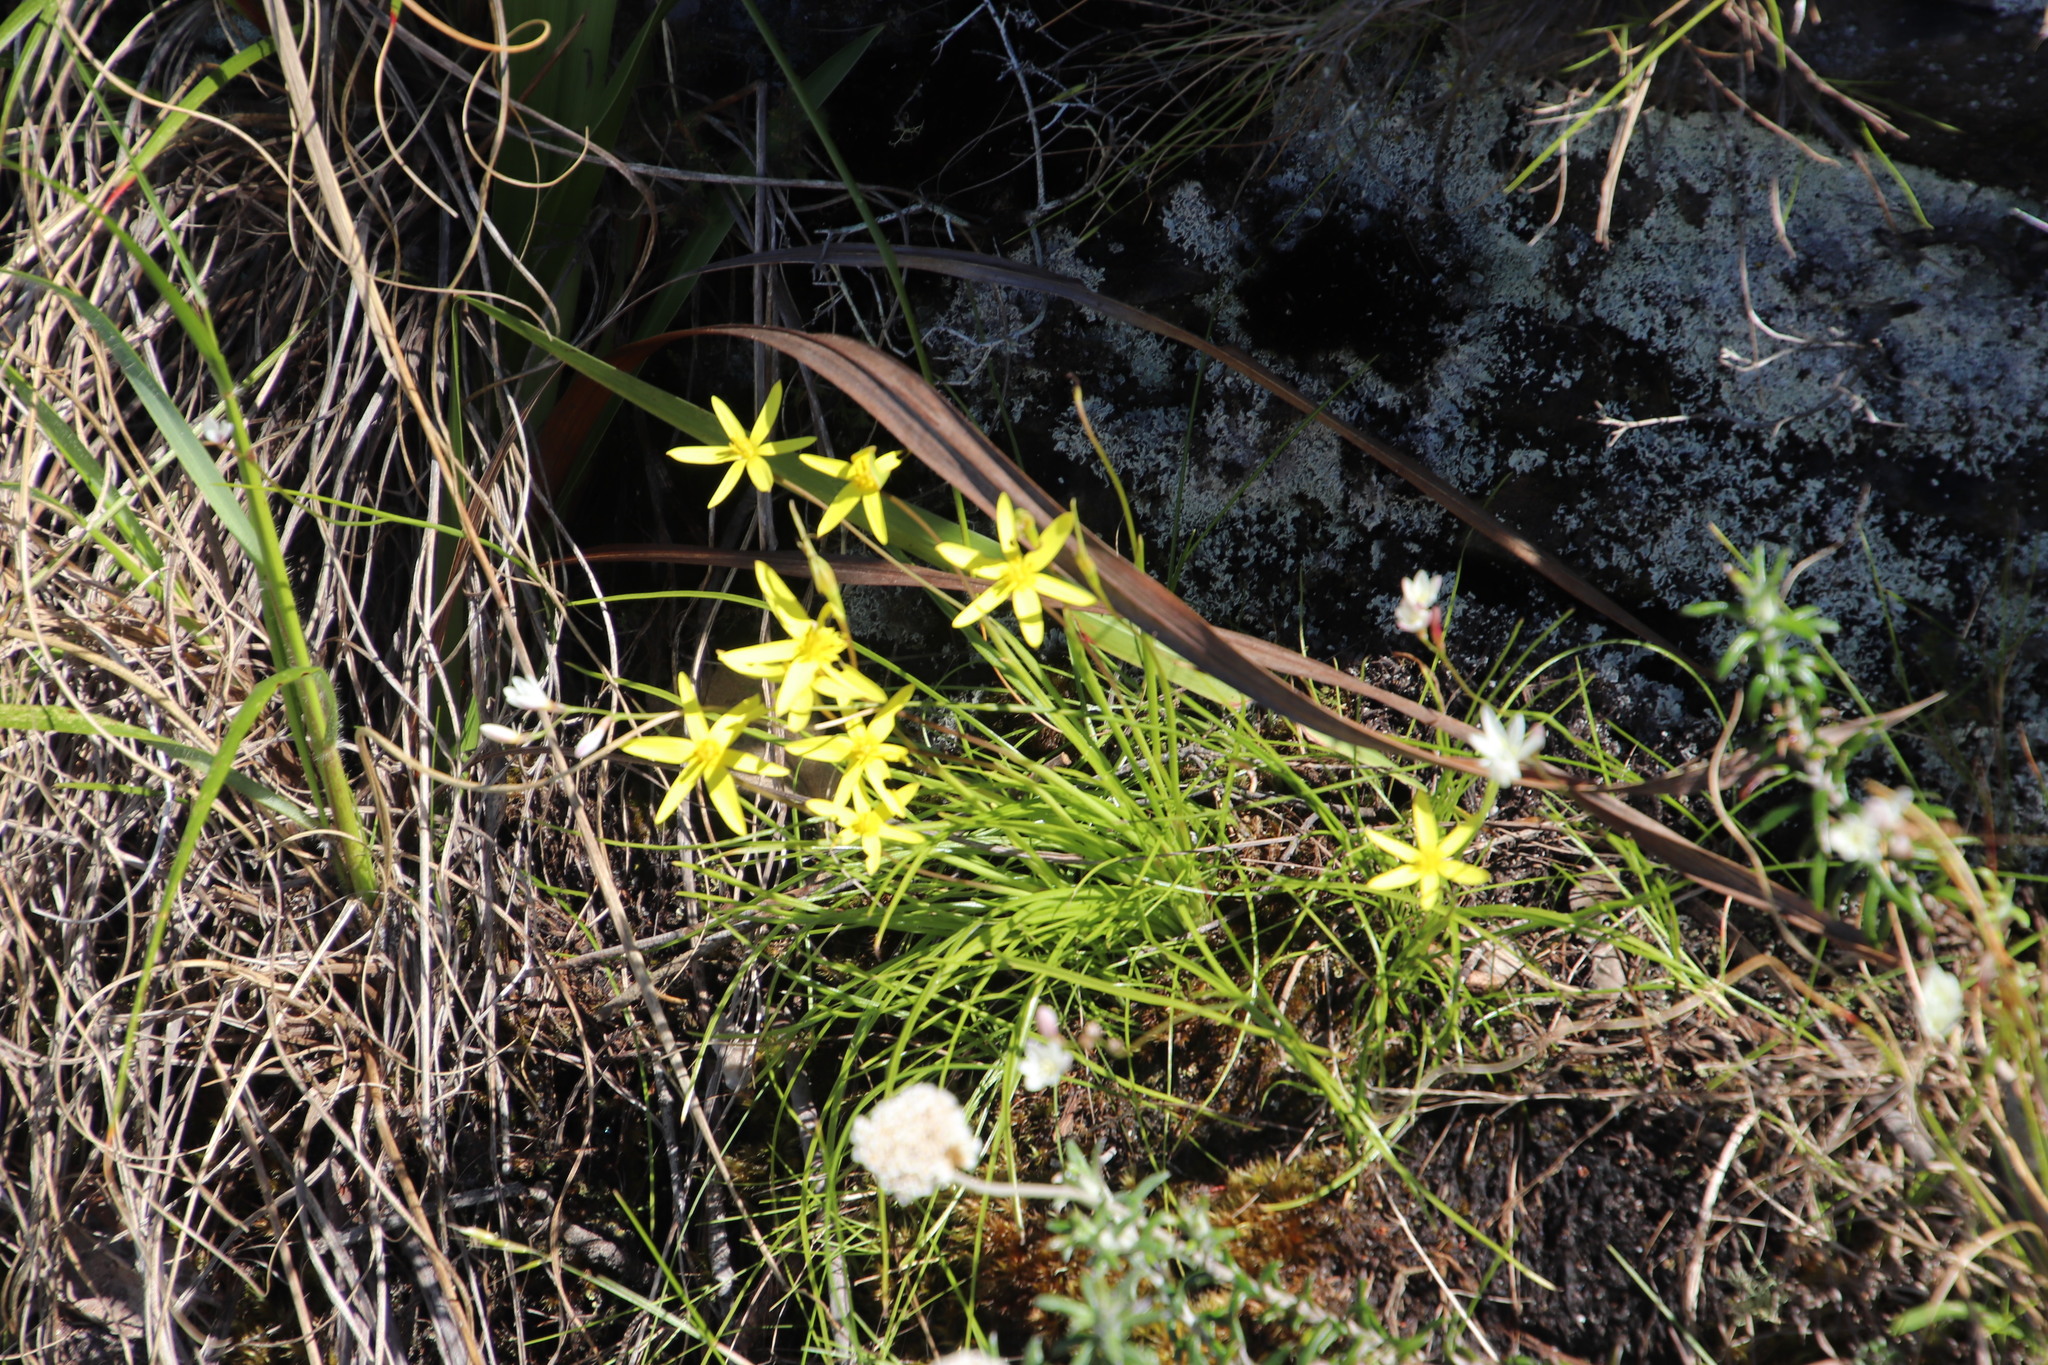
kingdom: Plantae
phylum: Tracheophyta
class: Liliopsida
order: Asparagales
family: Hypoxidaceae
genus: Pauridia
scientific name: Pauridia capensis
